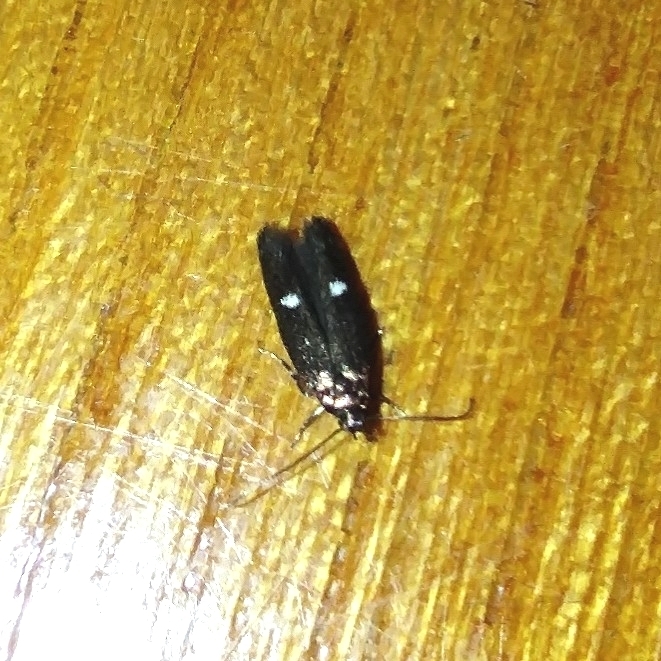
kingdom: Animalia
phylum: Arthropoda
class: Insecta
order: Lepidoptera
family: Momphidae
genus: Mompha
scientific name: Mompha langiella
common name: Clouded cosmet
